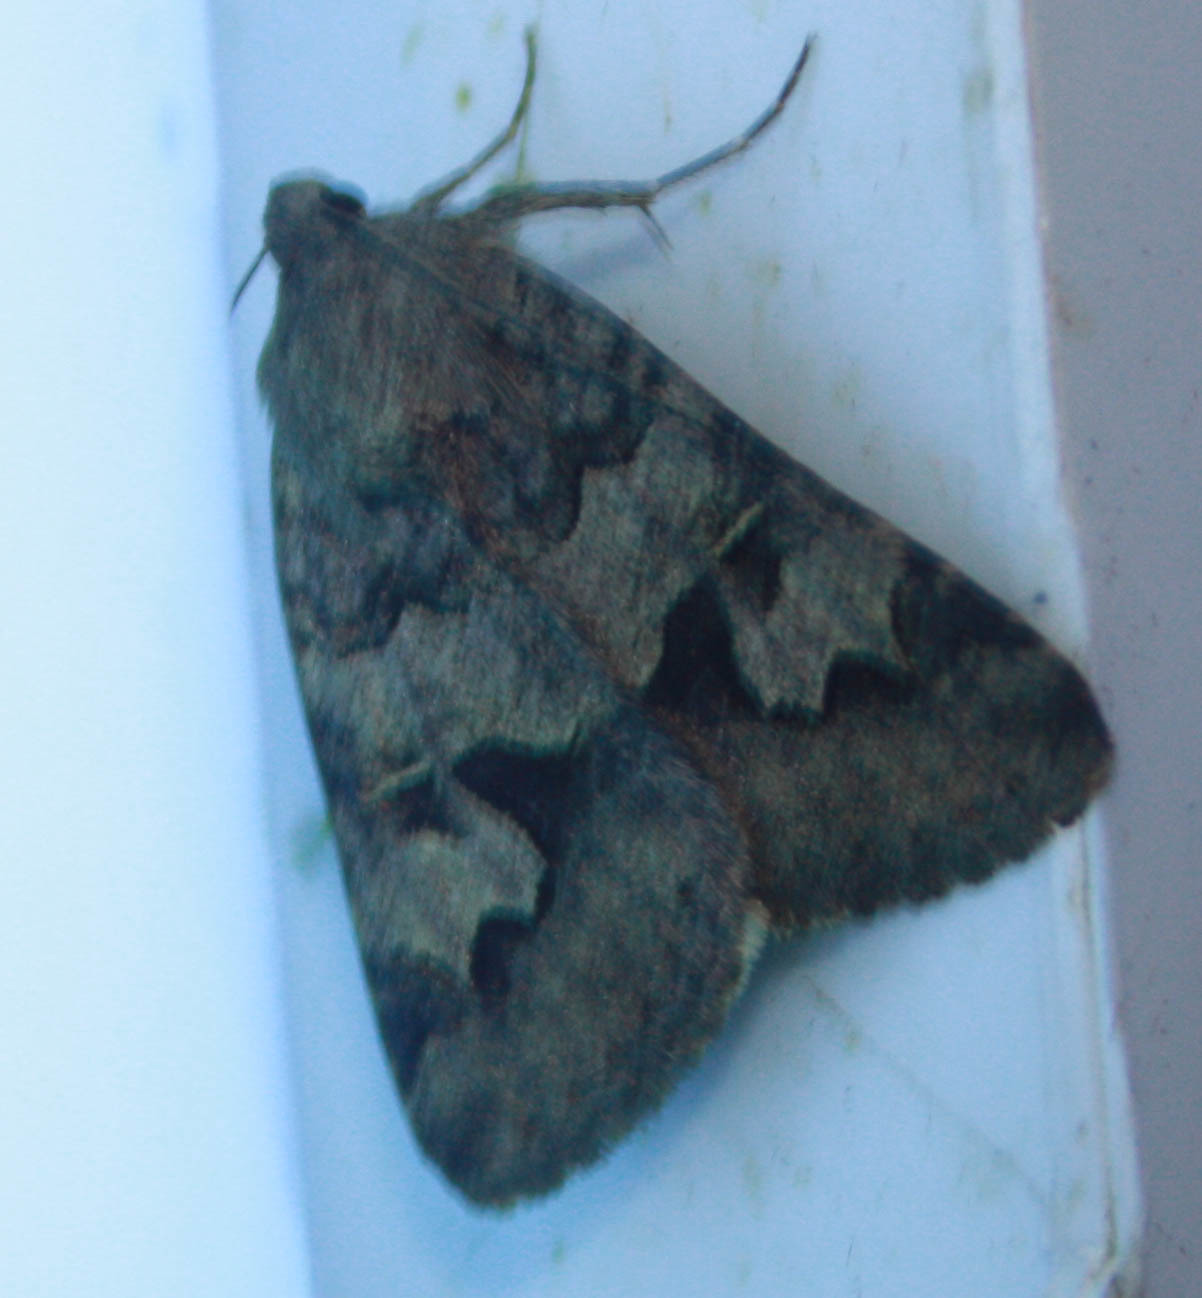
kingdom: Animalia
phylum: Arthropoda
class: Insecta
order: Lepidoptera
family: Erebidae
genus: Drasteria
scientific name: Drasteria adumbrata
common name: Shadowy arches
